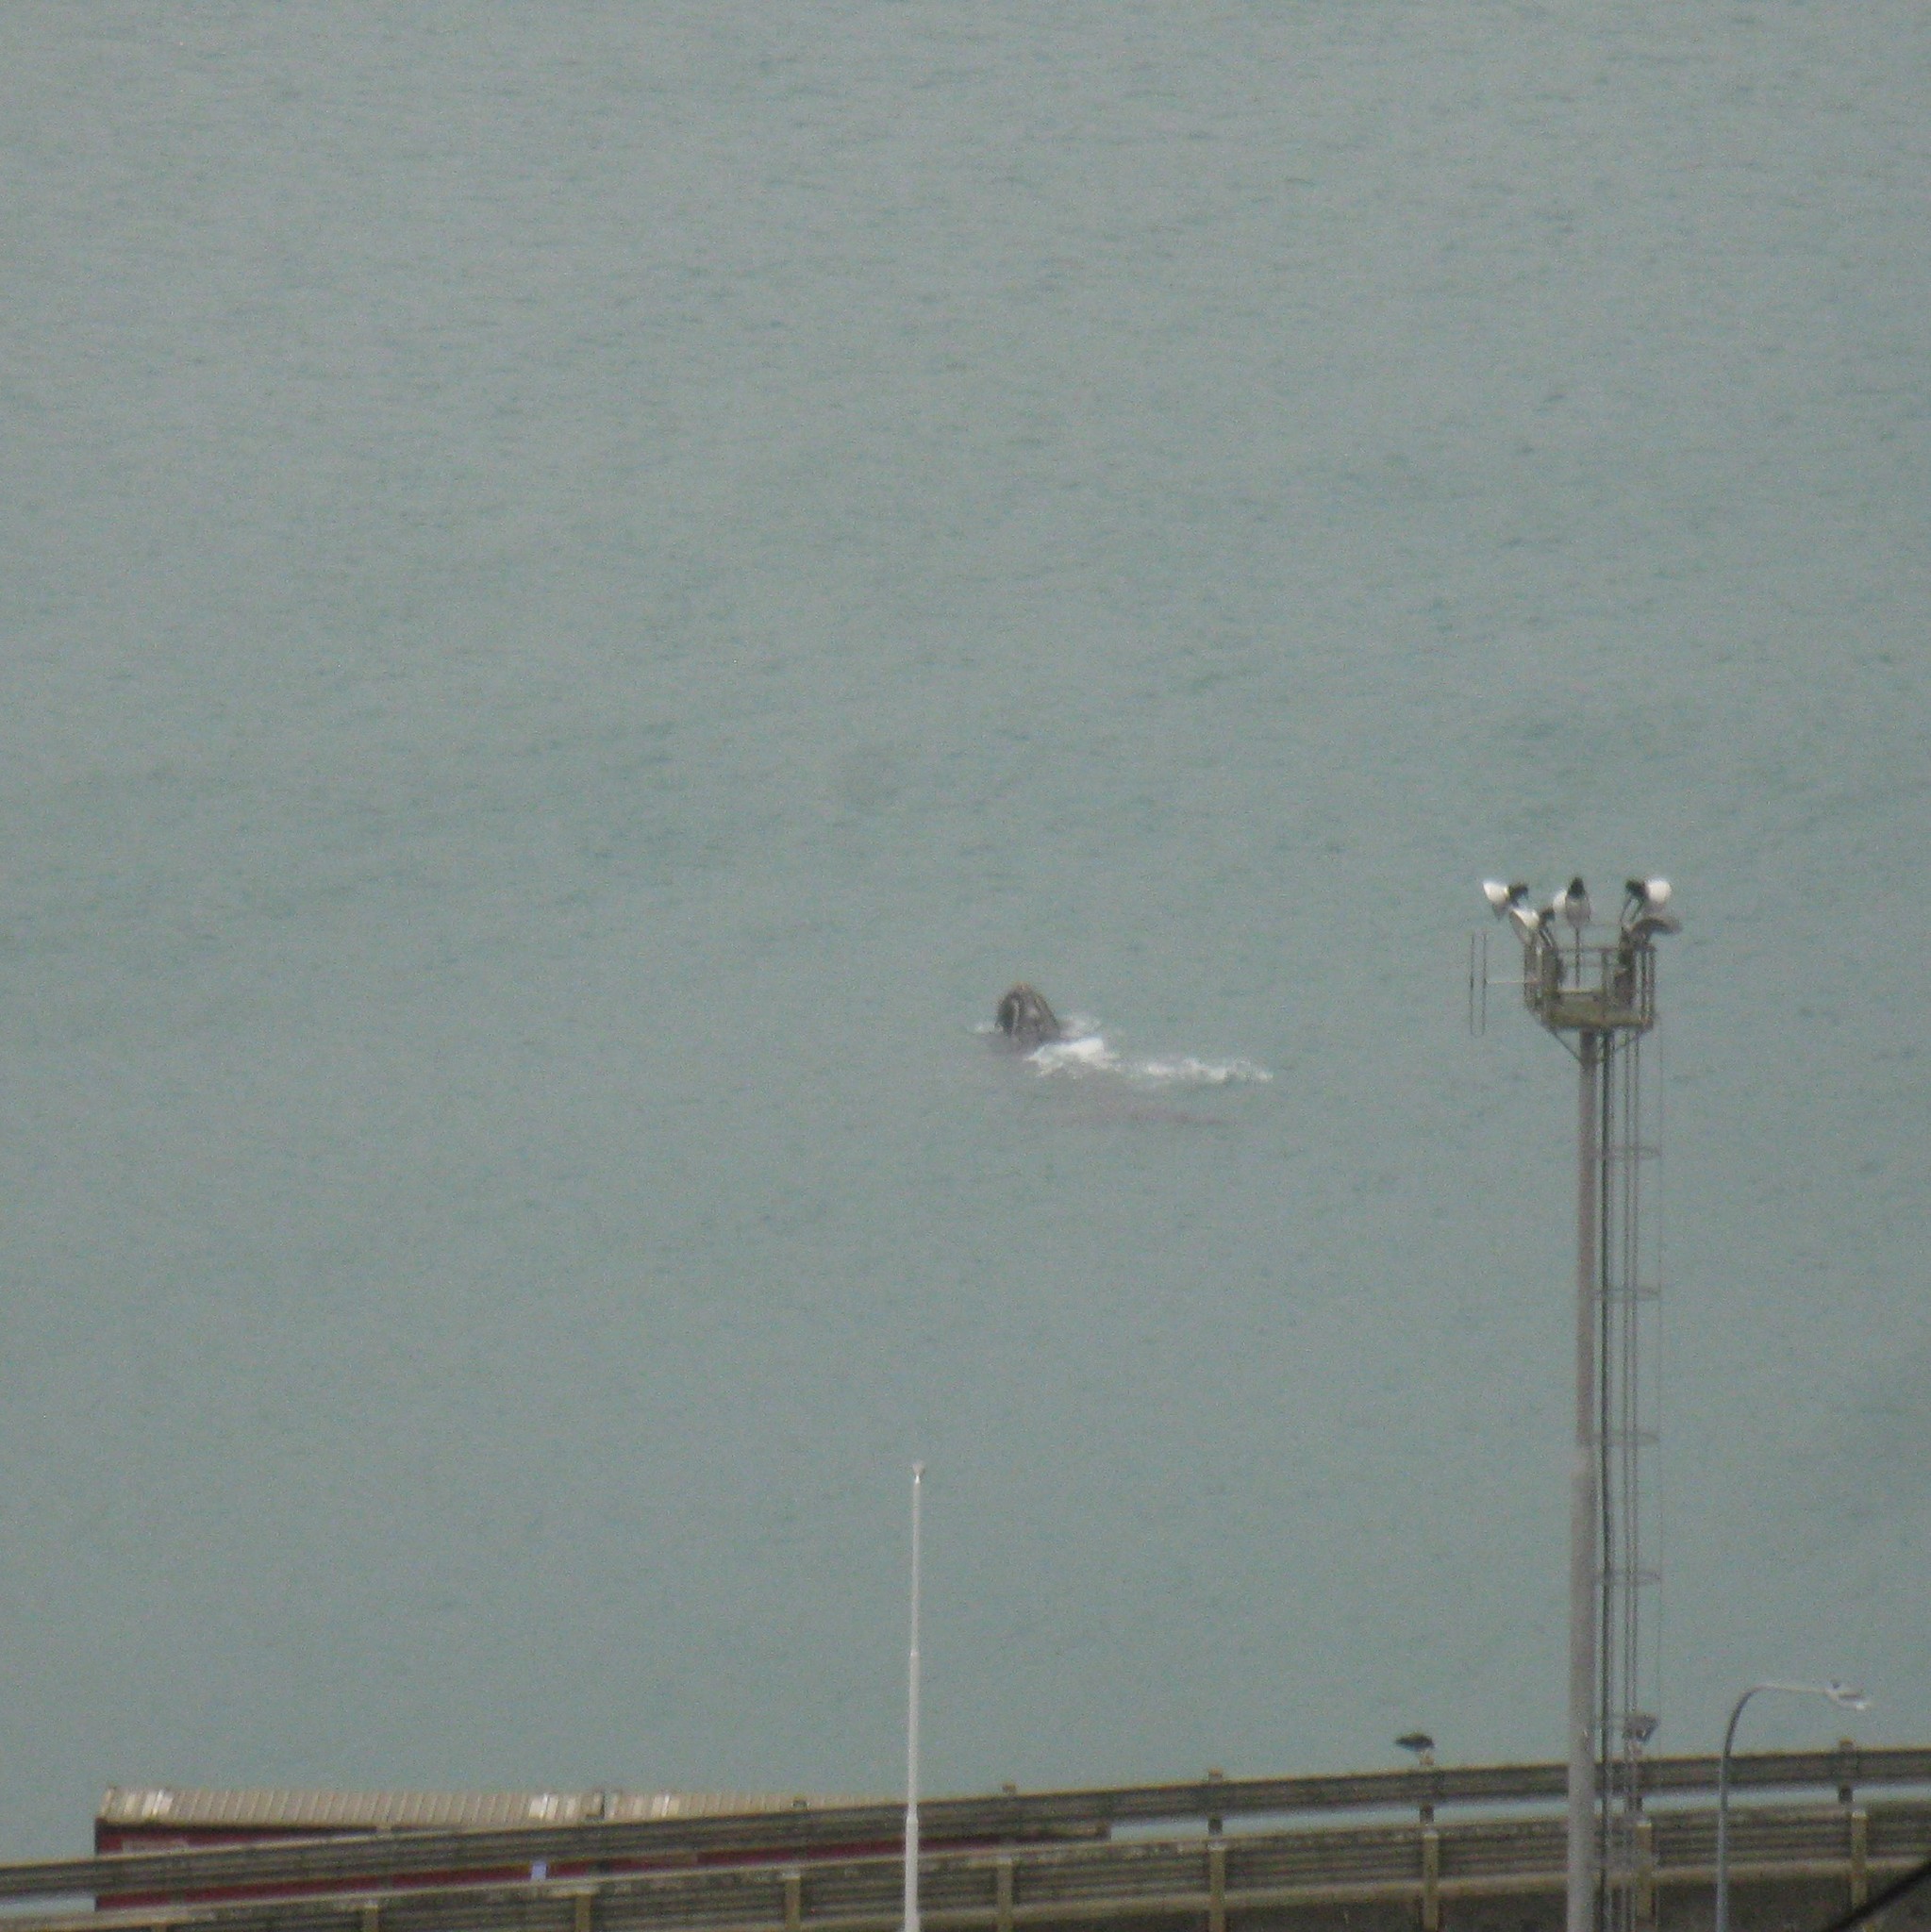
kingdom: Animalia
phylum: Chordata
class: Mammalia
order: Cetacea
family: Balaenidae
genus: Eubalaena
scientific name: Eubalaena australis
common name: Southern right whale
